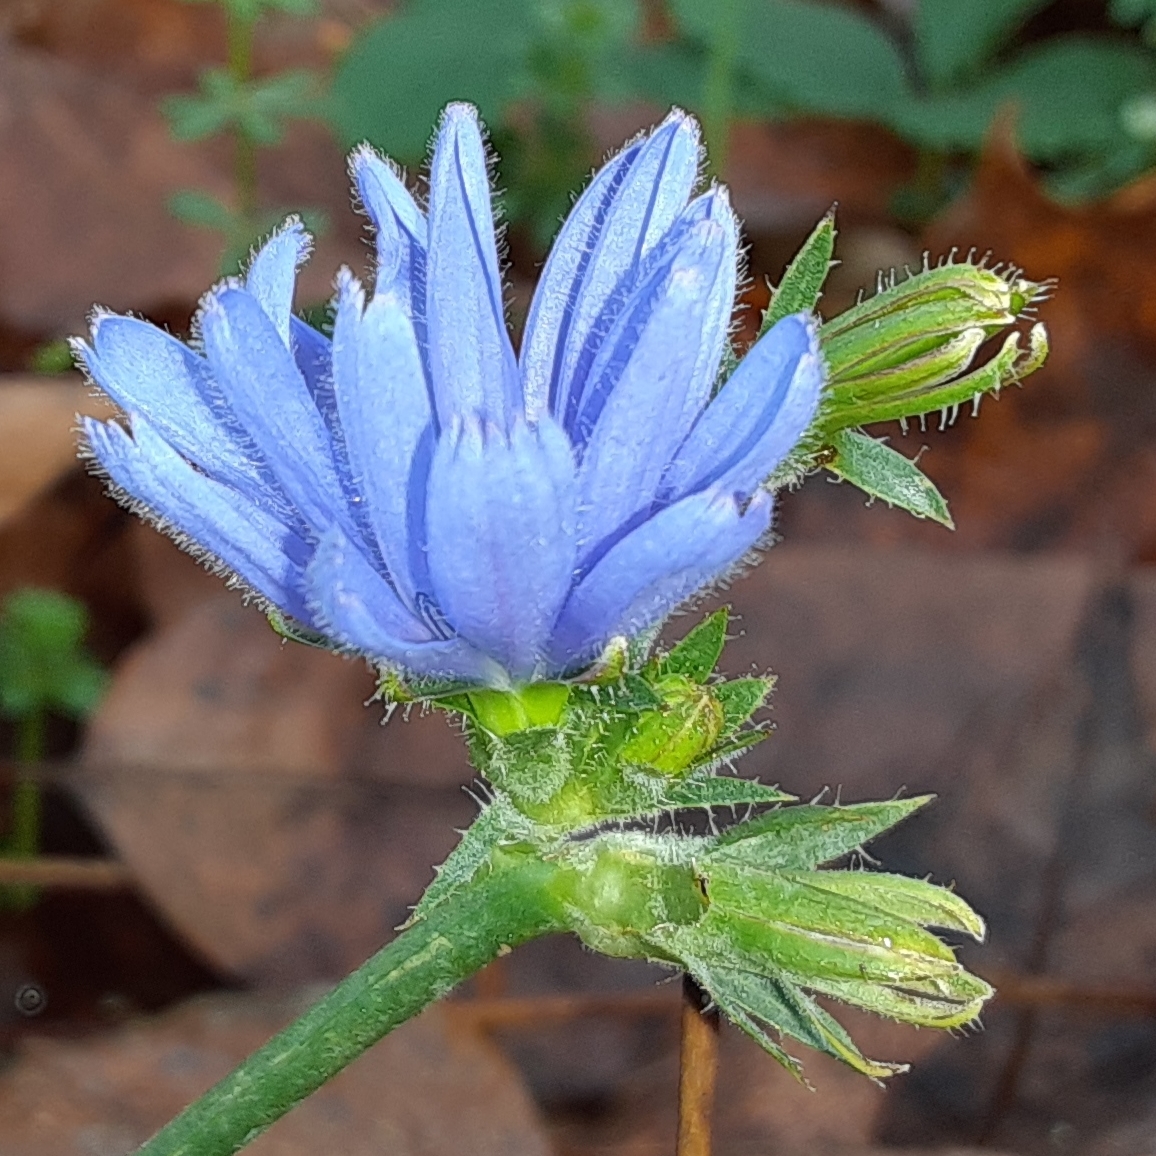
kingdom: Plantae
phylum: Tracheophyta
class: Magnoliopsida
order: Asterales
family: Asteraceae
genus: Cichorium
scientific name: Cichorium intybus
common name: Chicory
